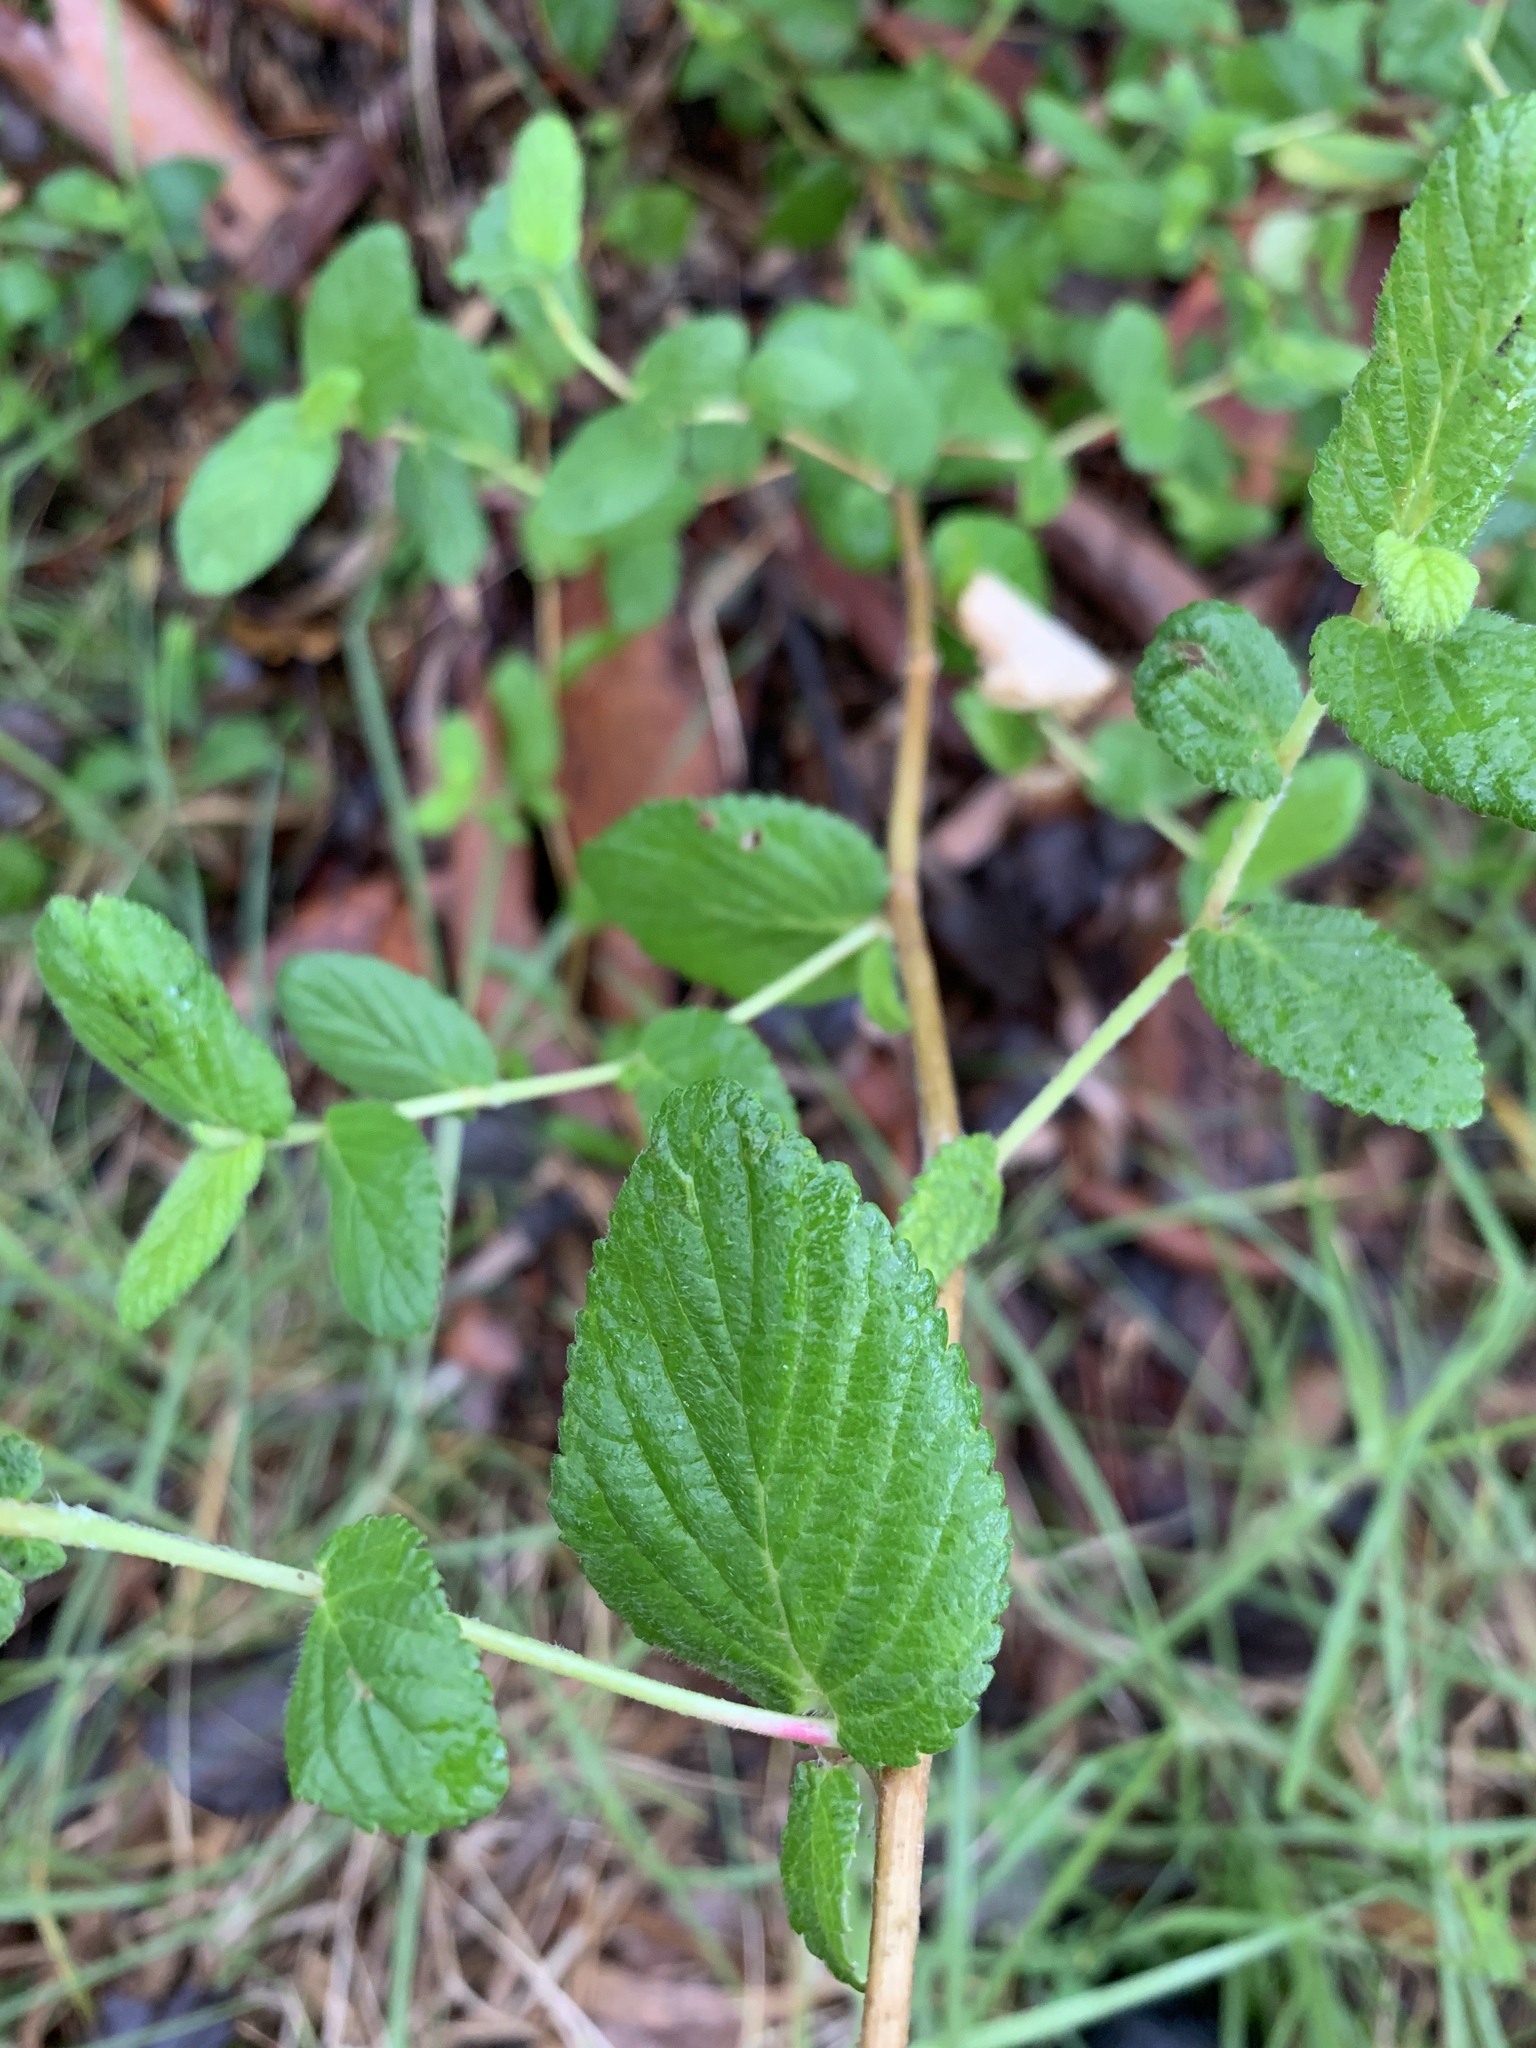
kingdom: Plantae
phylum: Tracheophyta
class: Magnoliopsida
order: Rosales
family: Rosaceae
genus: Cliffortia
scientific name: Cliffortia odorata
